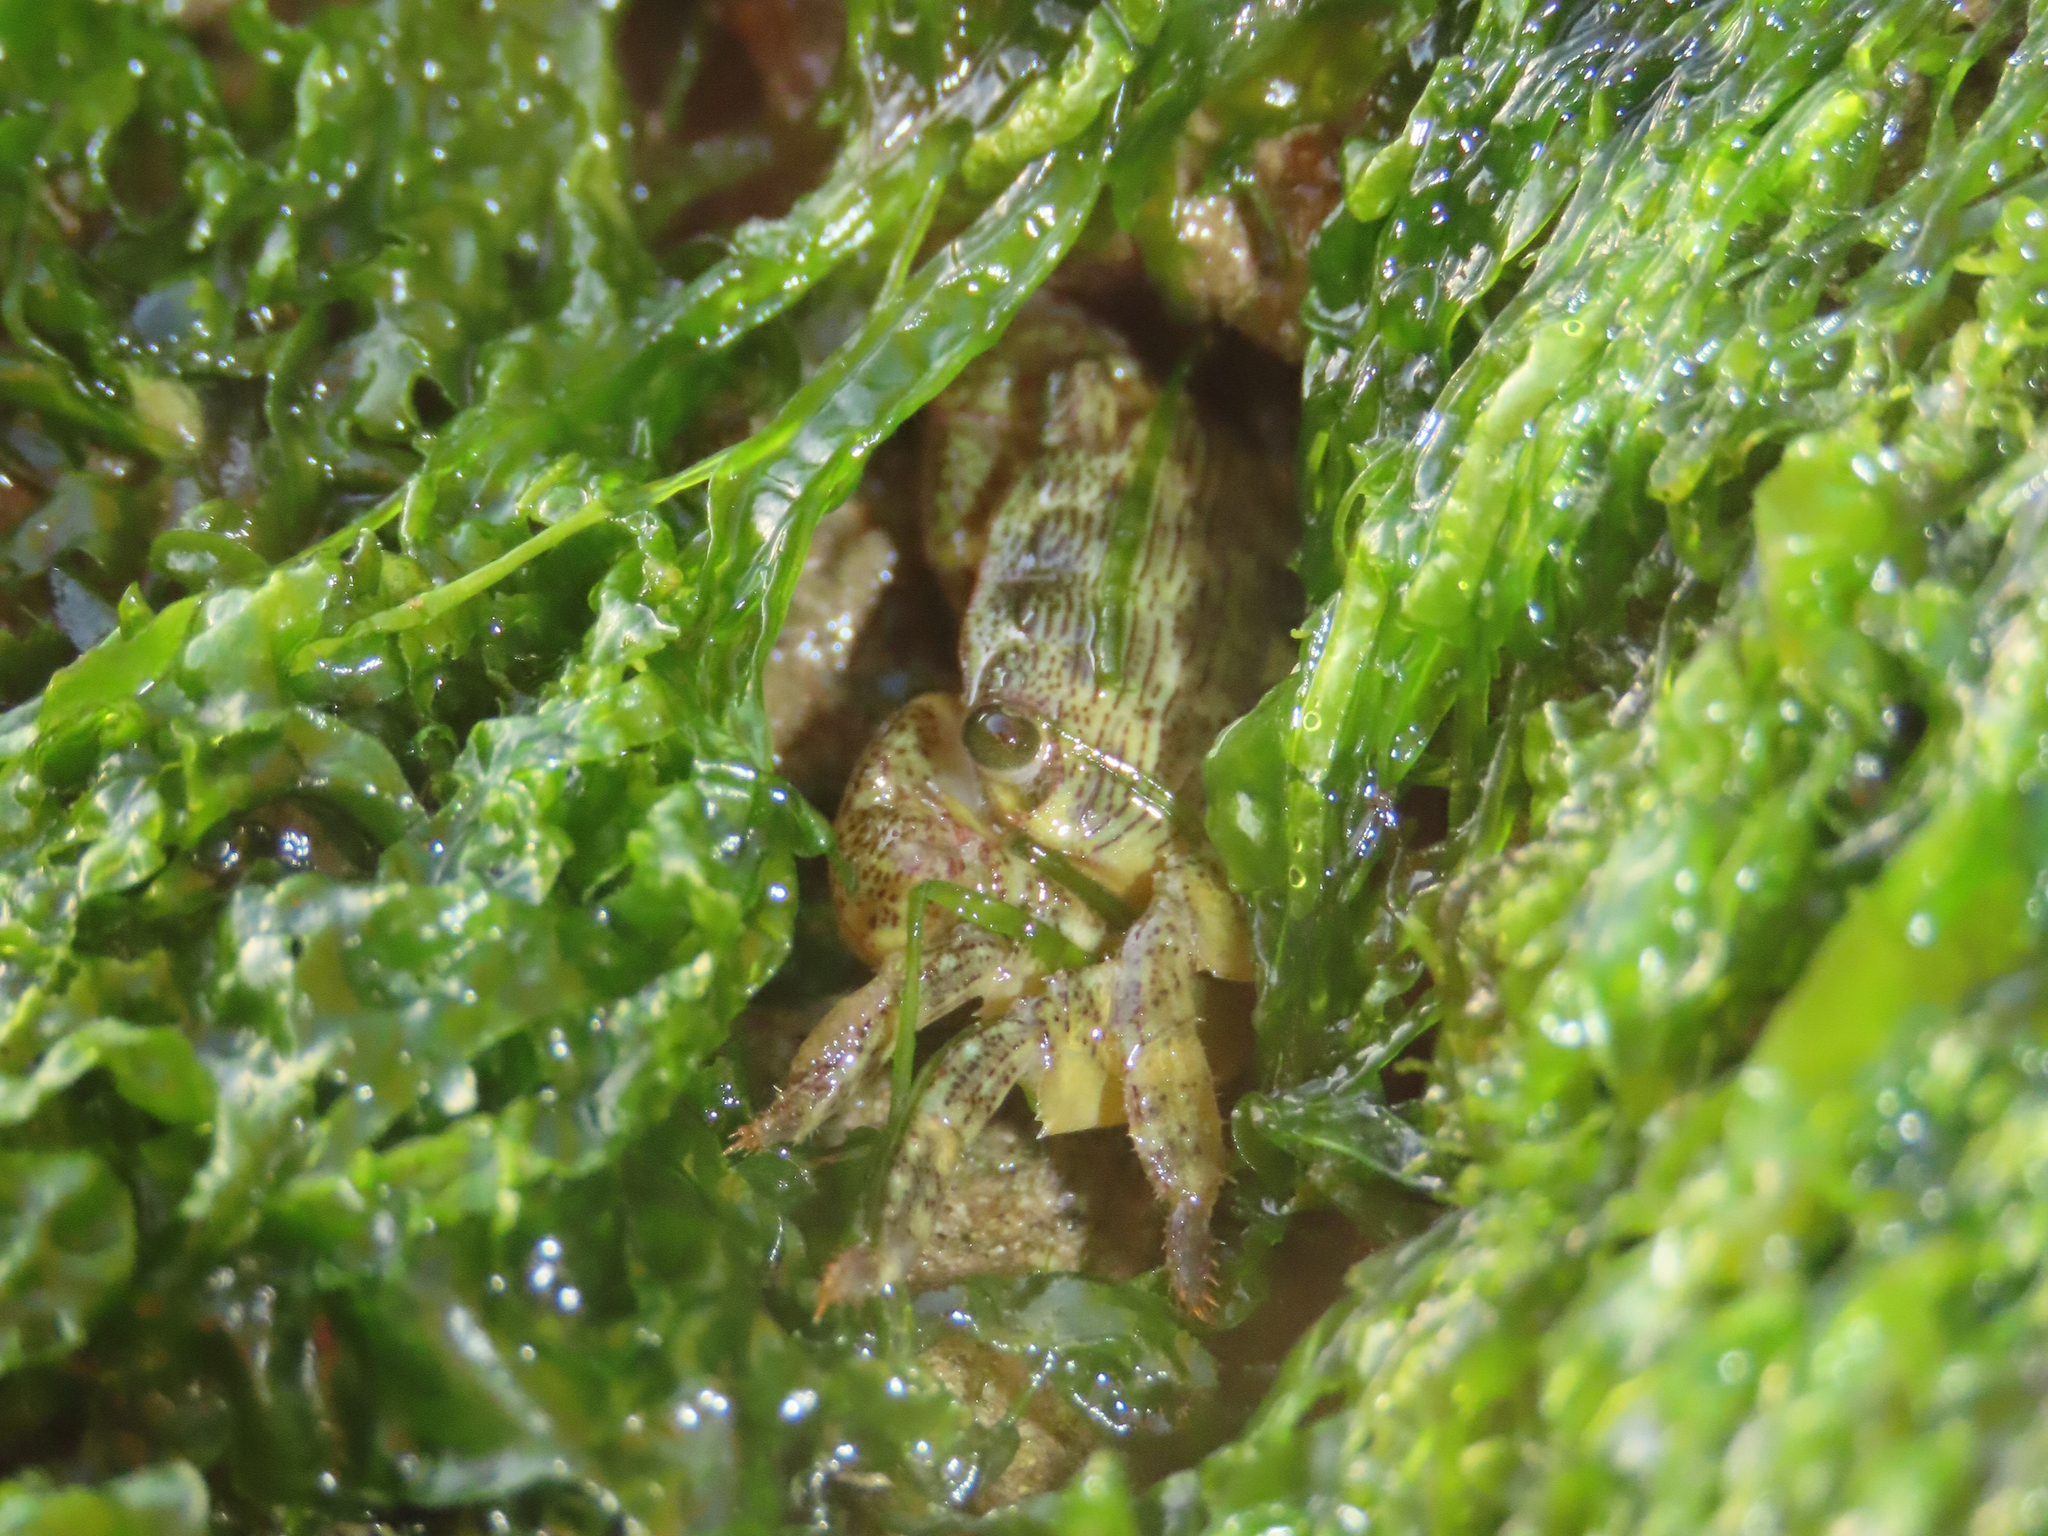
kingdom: Animalia
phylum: Arthropoda
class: Malacostraca
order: Decapoda
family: Grapsidae
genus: Pachygrapsus
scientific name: Pachygrapsus crassipes
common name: Striped shore crab
